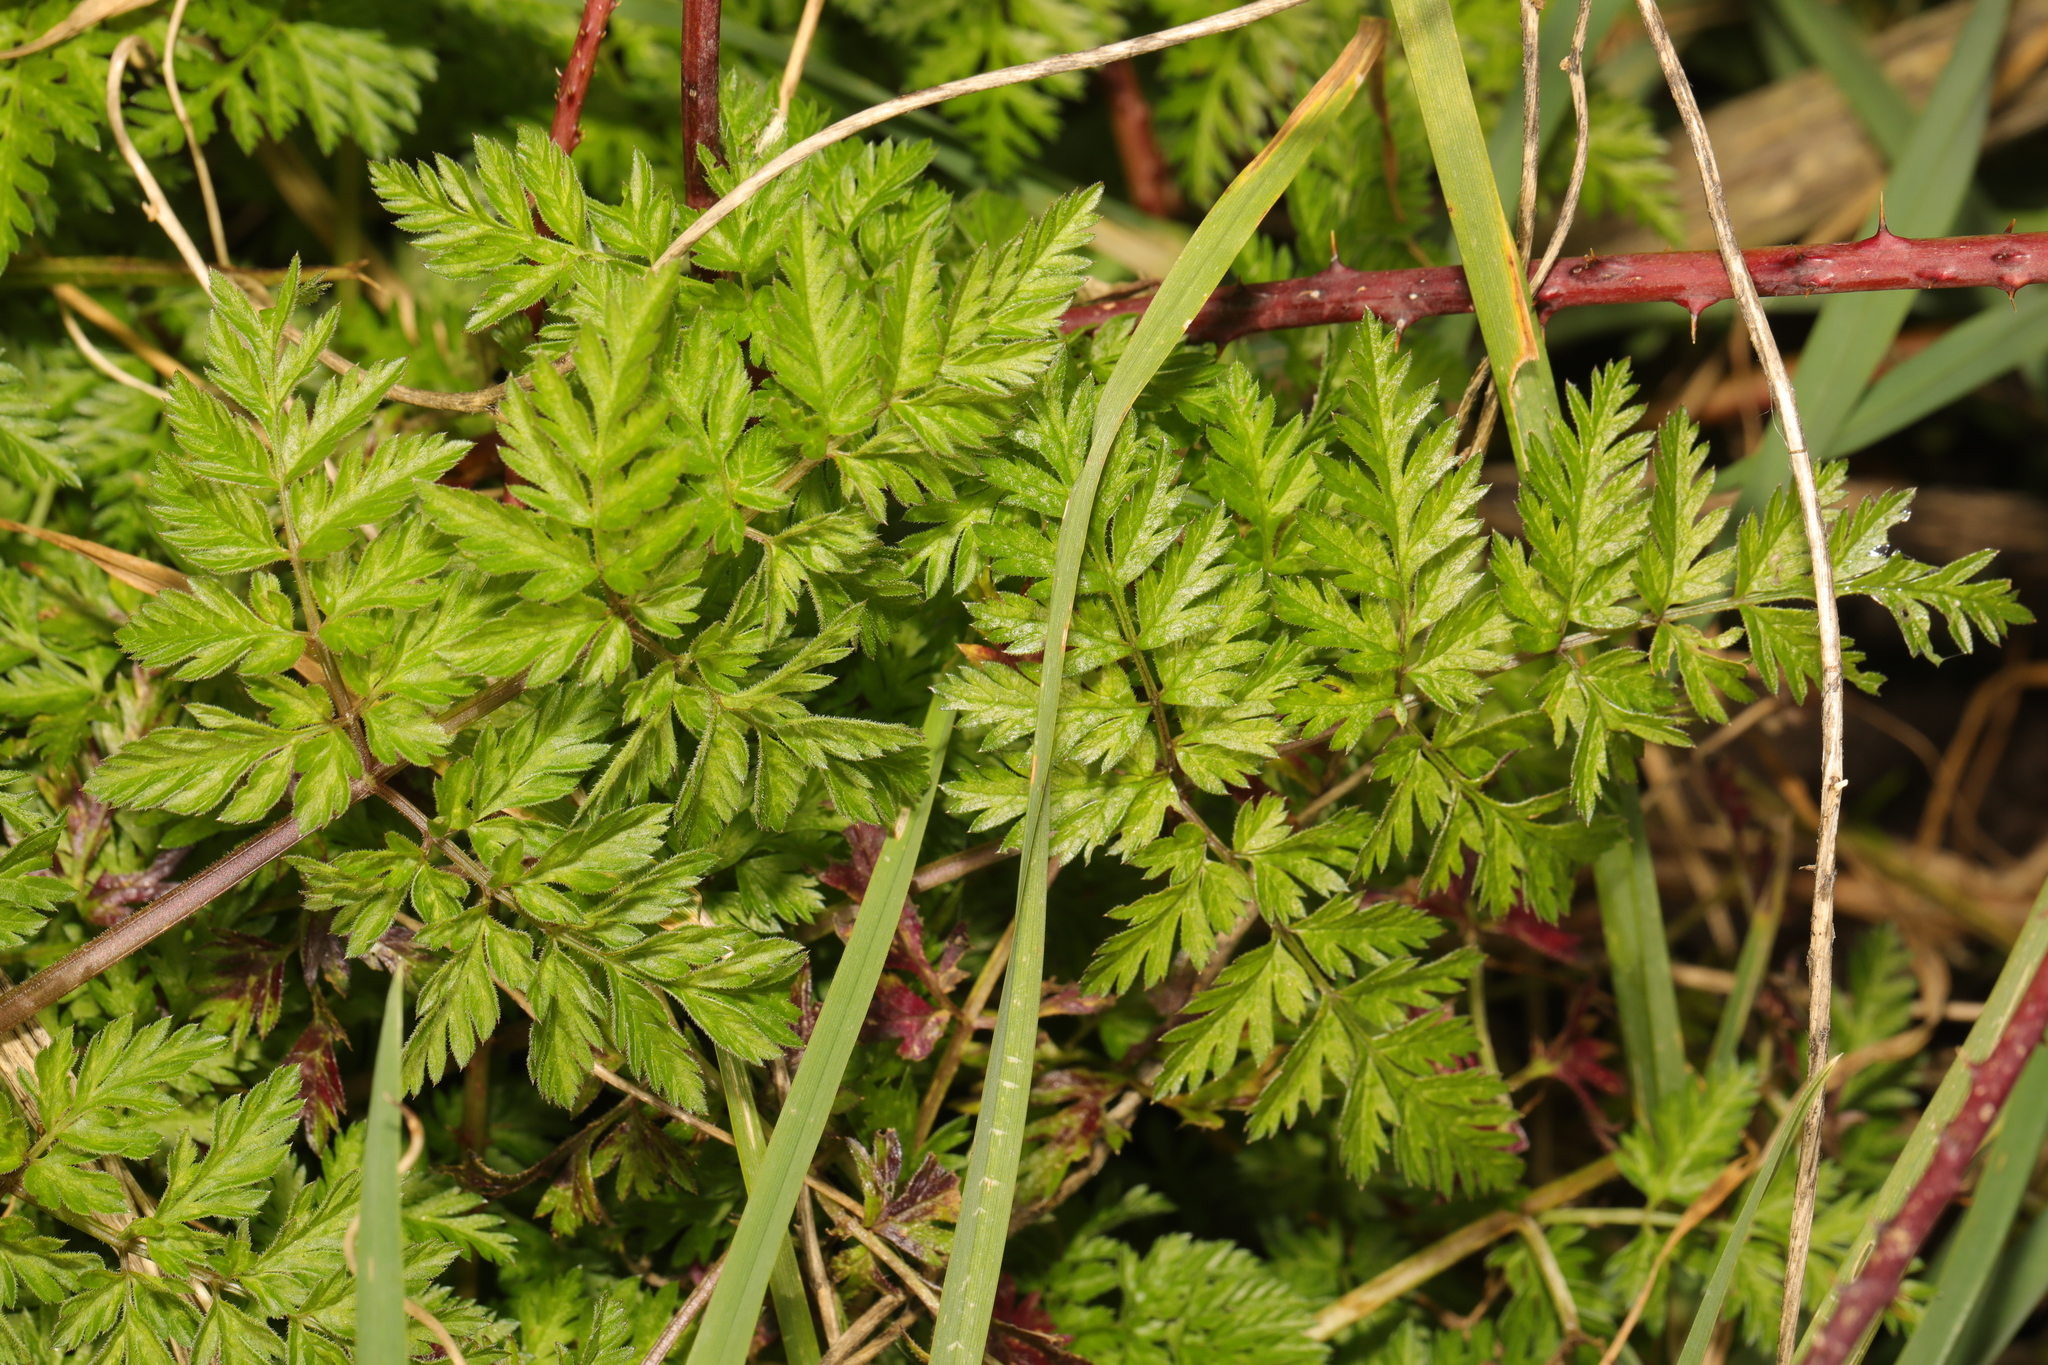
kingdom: Plantae
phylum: Tracheophyta
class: Magnoliopsida
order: Apiales
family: Apiaceae
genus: Anthriscus
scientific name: Anthriscus sylvestris
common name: Cow parsley
